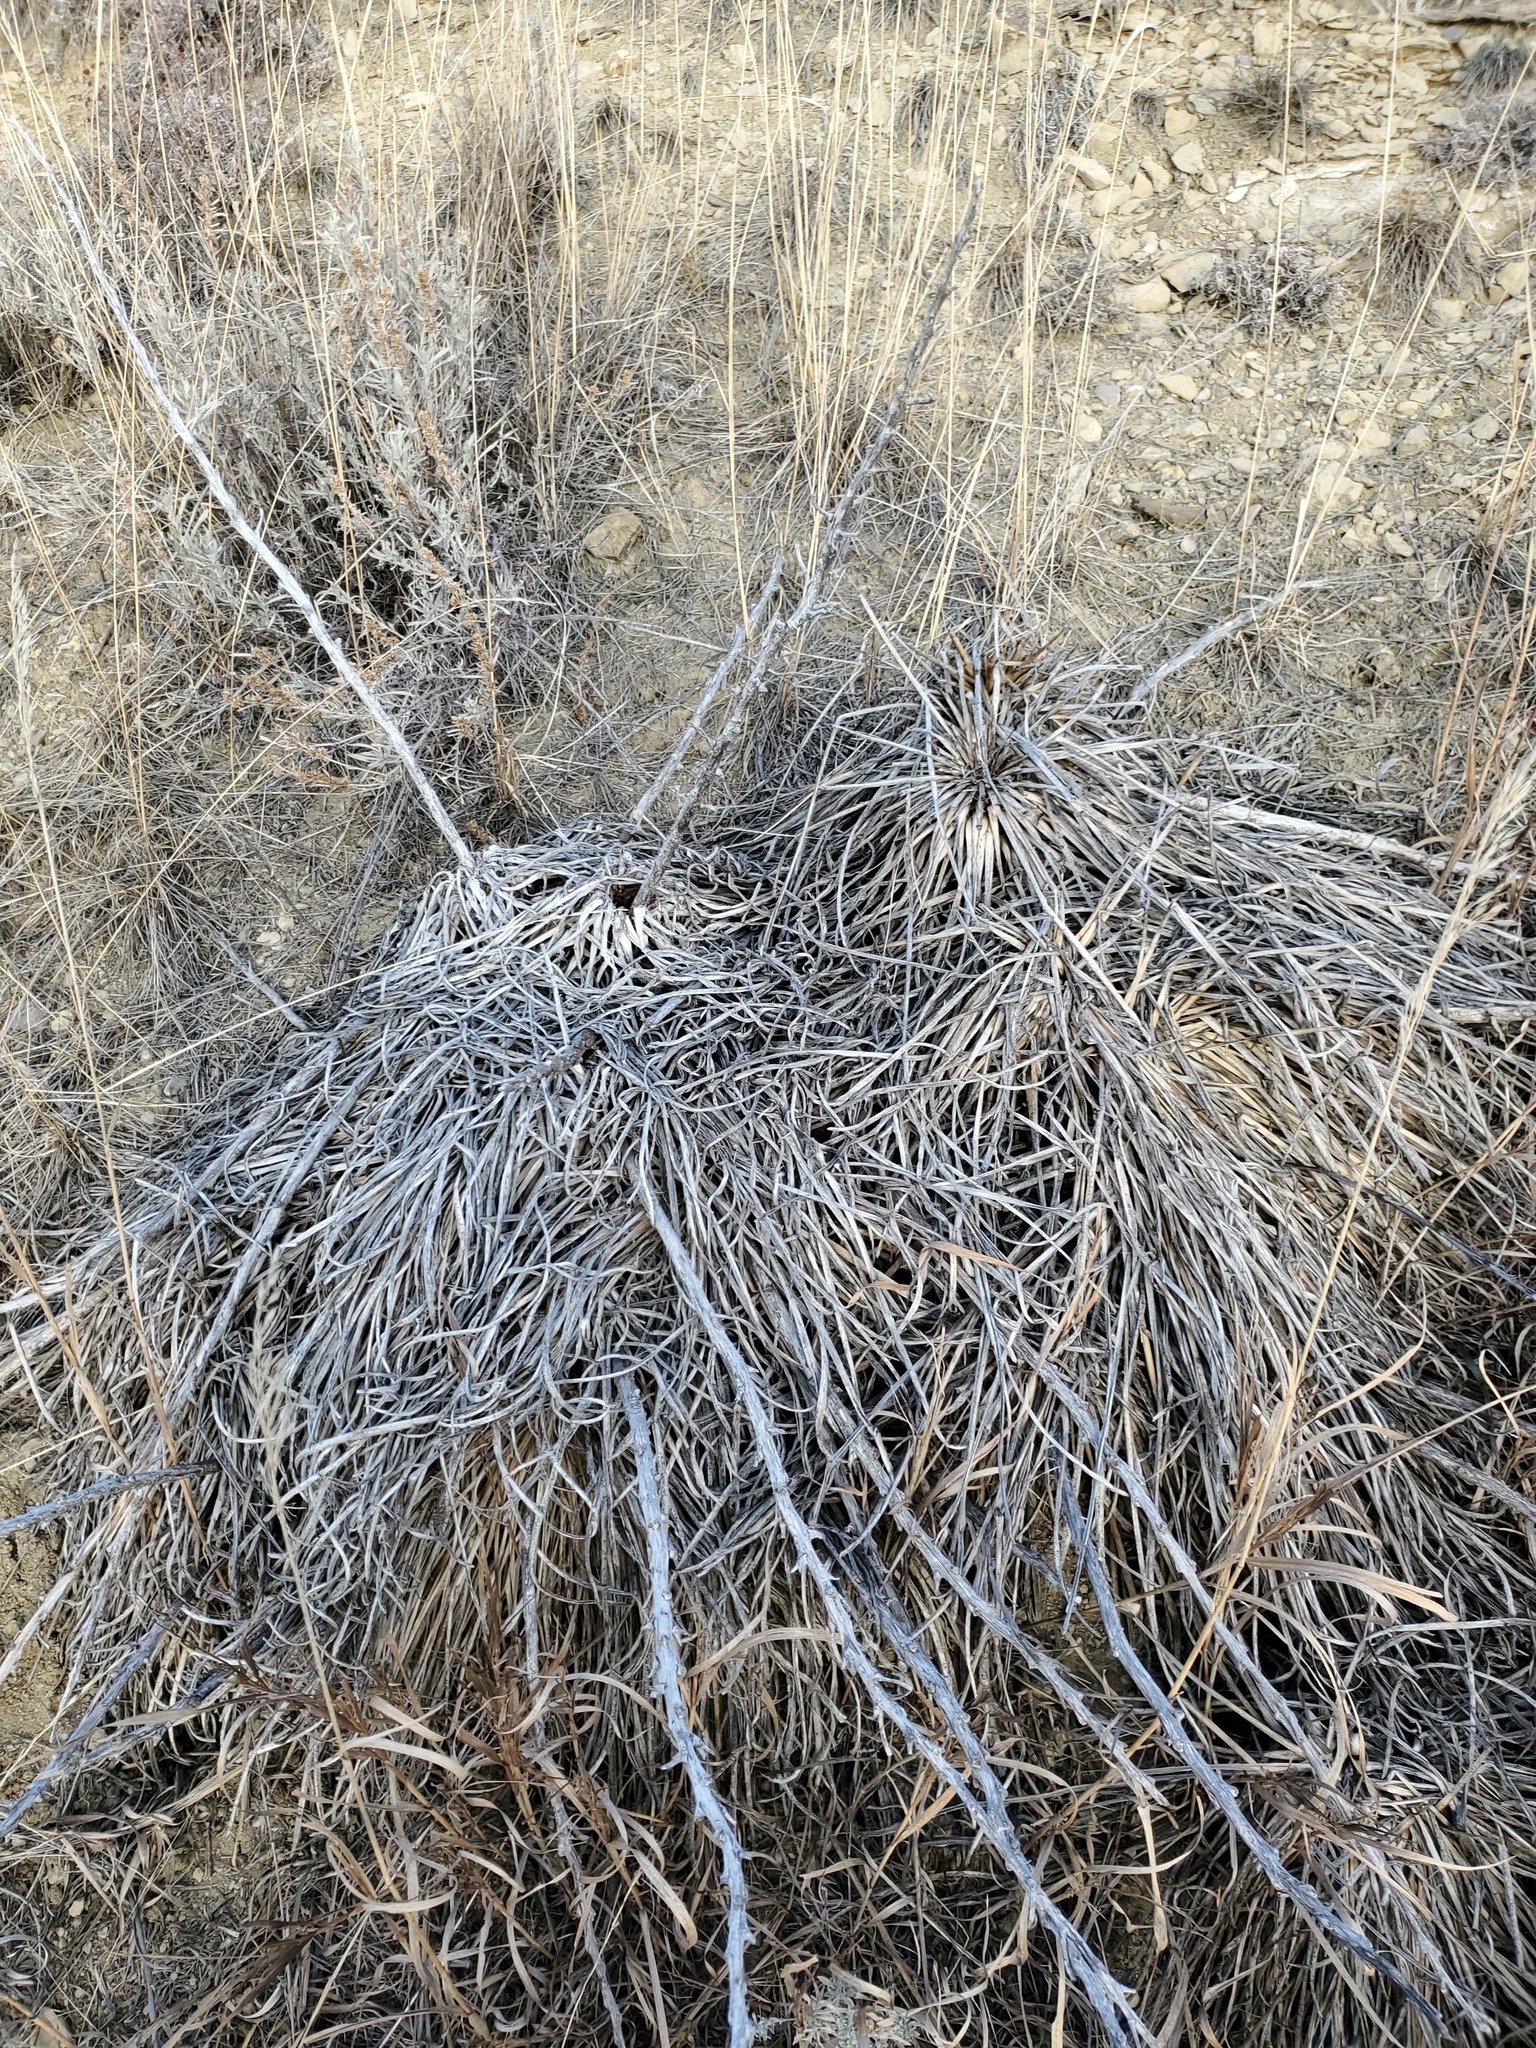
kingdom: Plantae
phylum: Tracheophyta
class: Liliopsida
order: Asparagales
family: Asparagaceae
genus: Yucca
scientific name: Yucca glauca
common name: Great plains yucca
